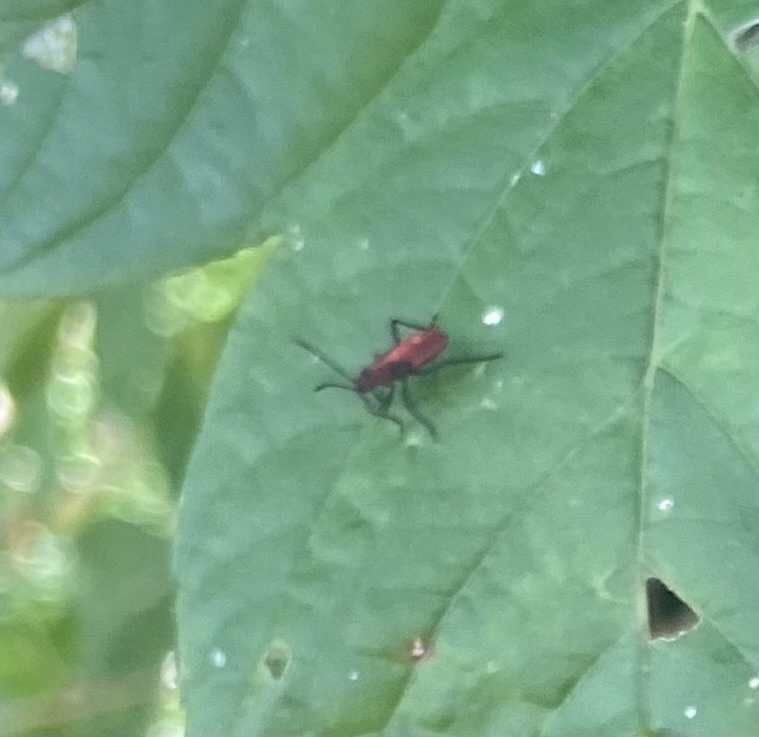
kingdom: Animalia
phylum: Arthropoda
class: Insecta
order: Hemiptera
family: Rhopalidae
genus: Boisea
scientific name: Boisea trivittata
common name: Boxelder bug
